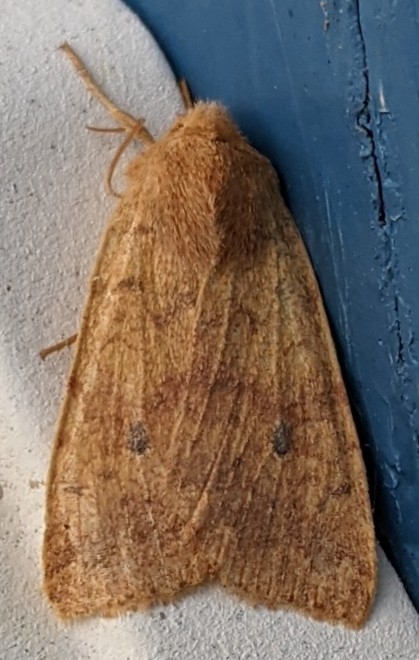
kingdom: Animalia
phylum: Arthropoda
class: Insecta
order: Lepidoptera
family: Noctuidae
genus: Agrochola
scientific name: Agrochola bicolorago
